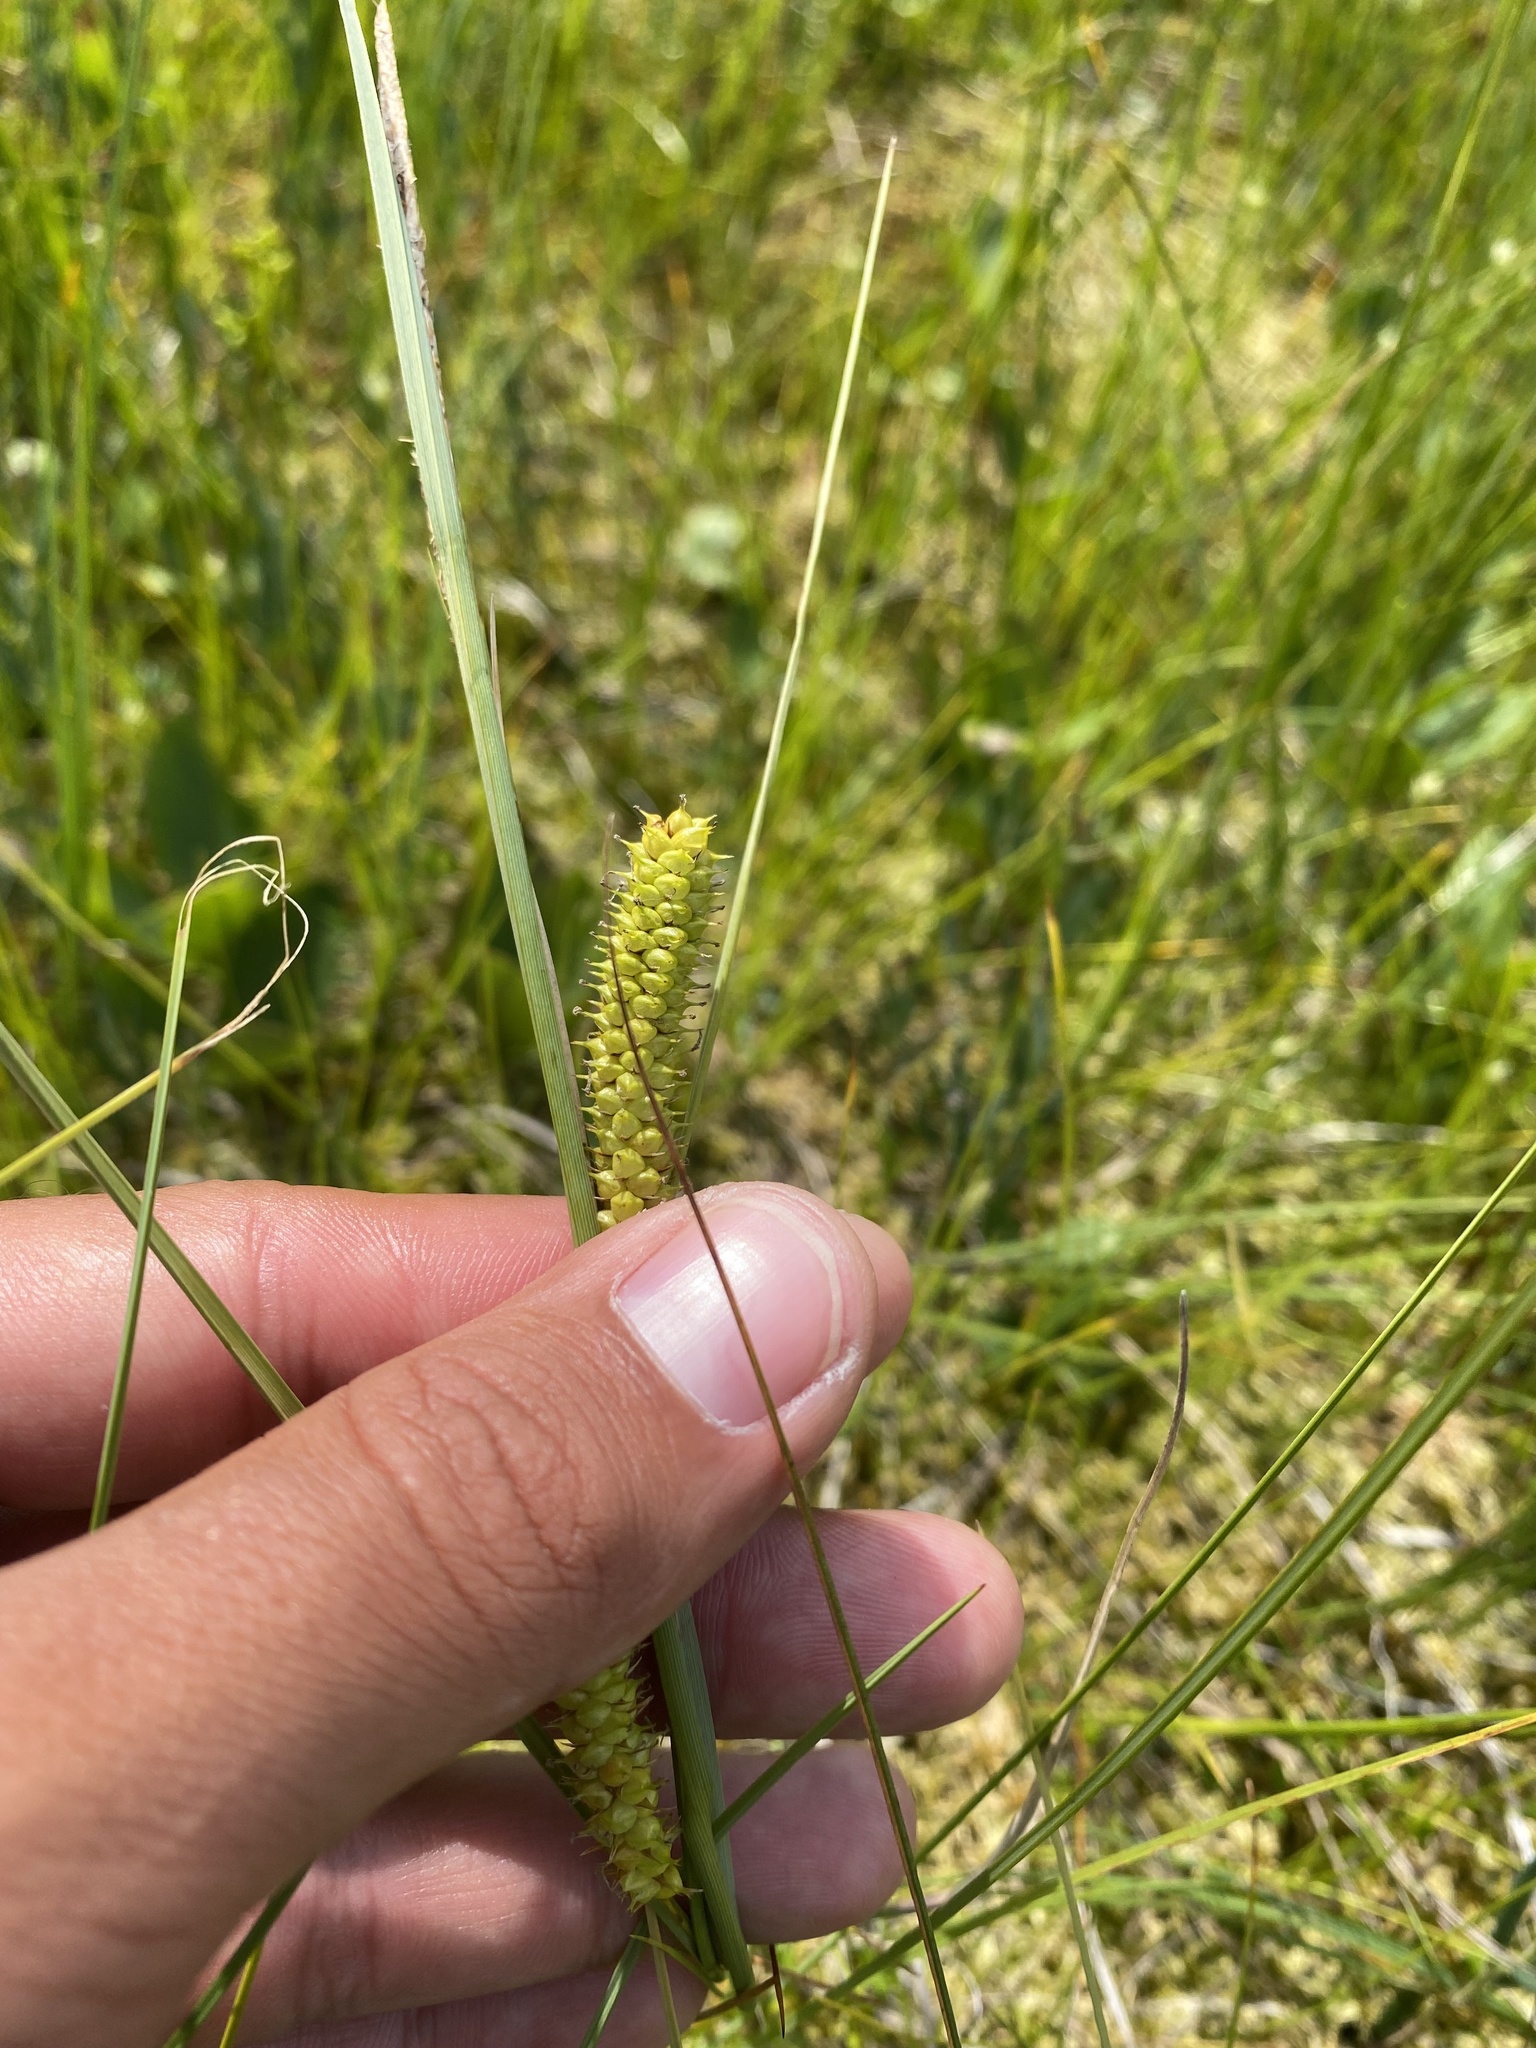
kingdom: Plantae
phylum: Tracheophyta
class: Liliopsida
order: Poales
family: Cyperaceae
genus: Carex
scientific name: Carex rostrata
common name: Bottle sedge
